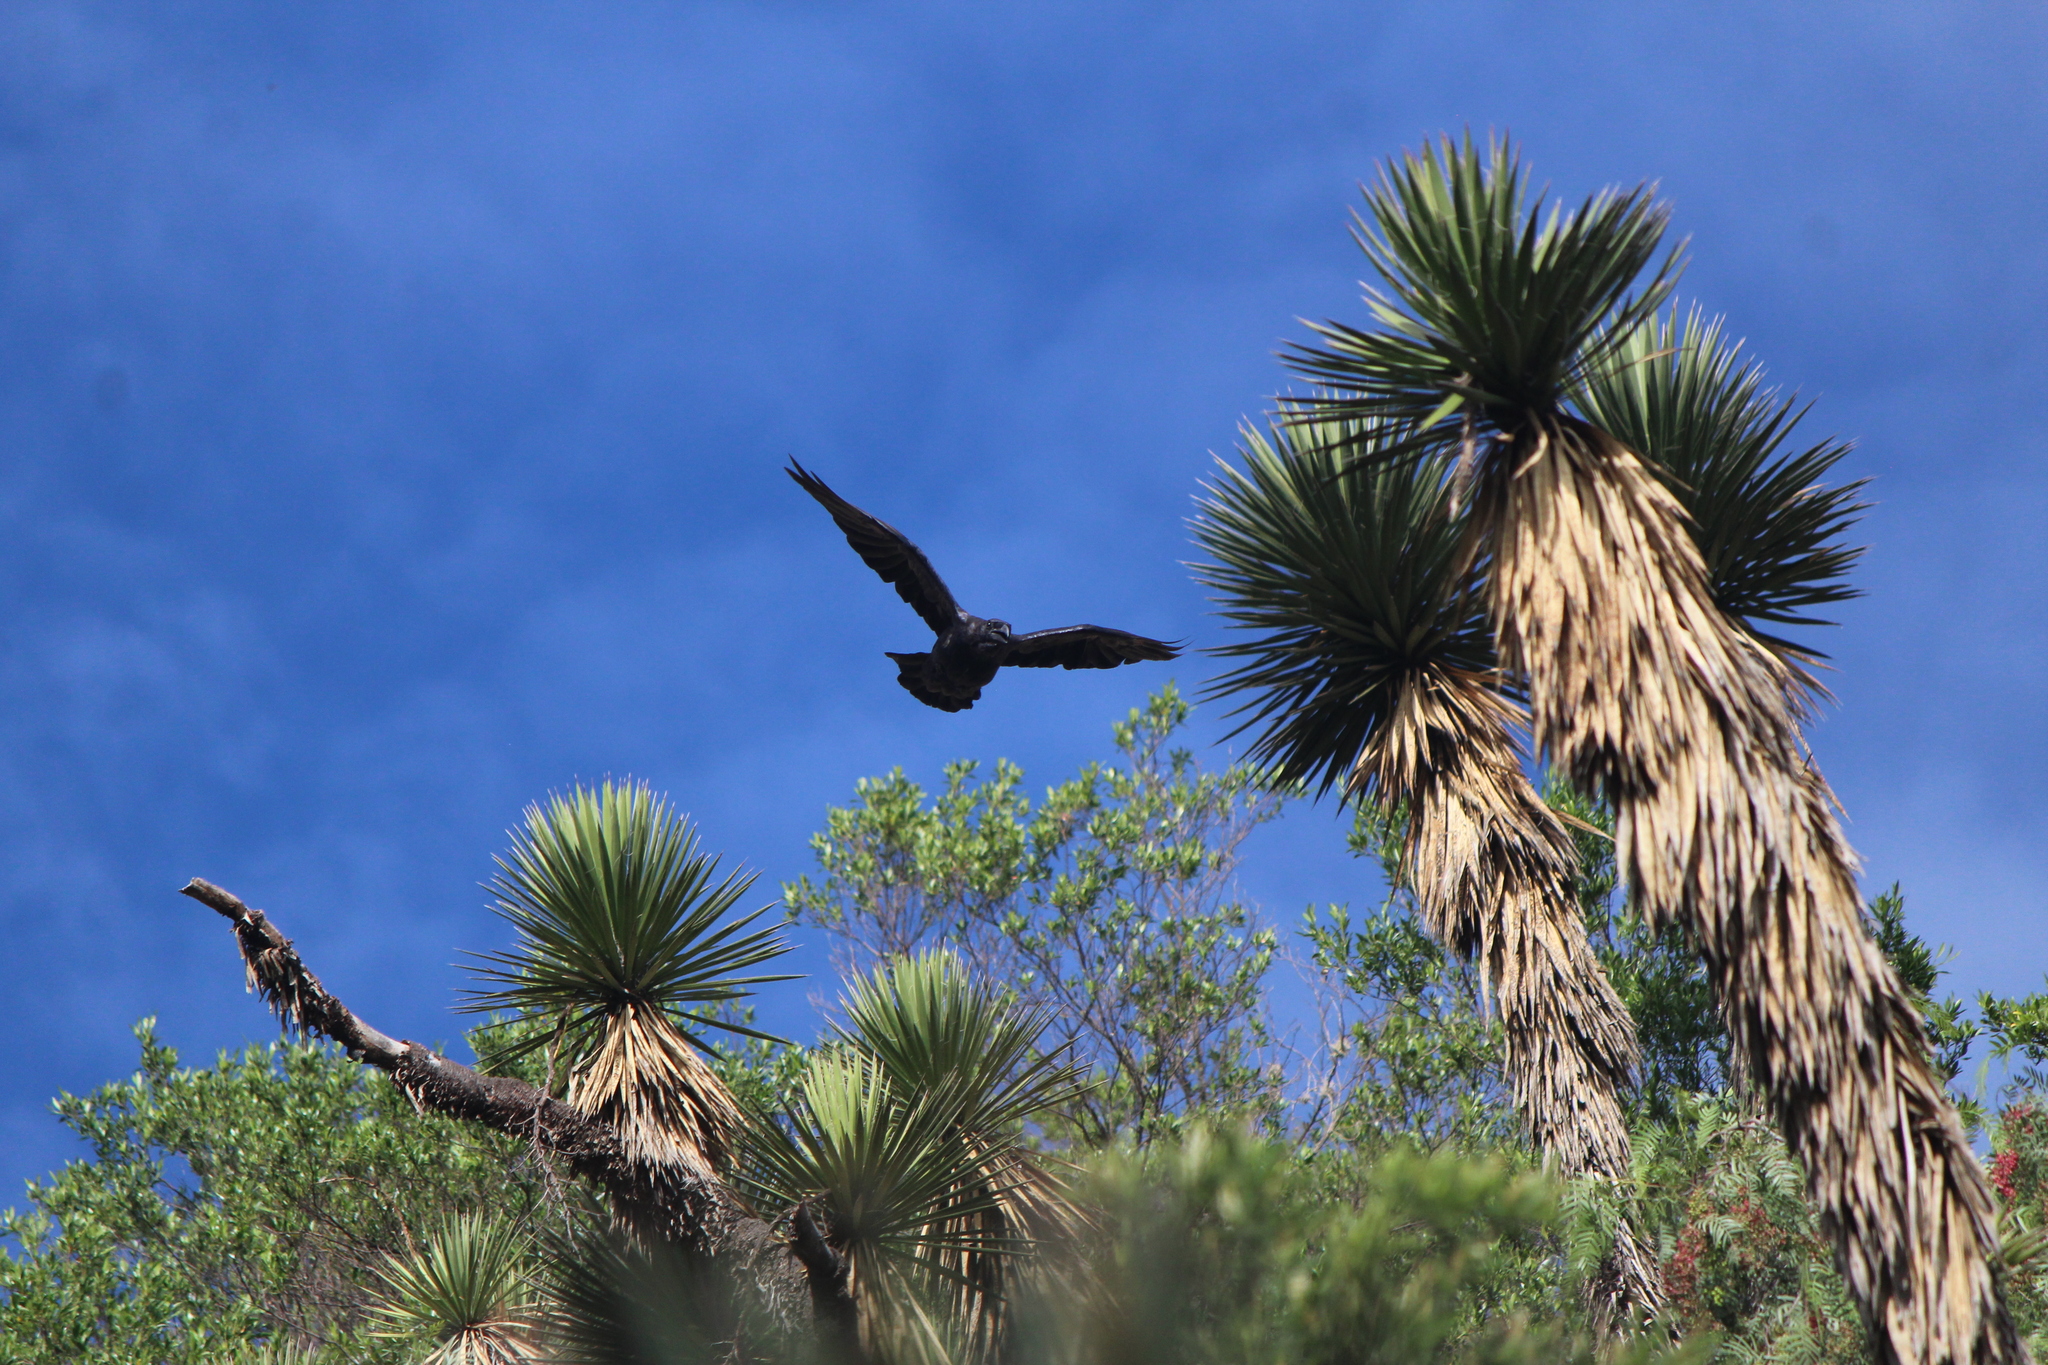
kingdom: Animalia
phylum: Chordata
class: Aves
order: Passeriformes
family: Corvidae
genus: Corvus
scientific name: Corvus corax
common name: Common raven
